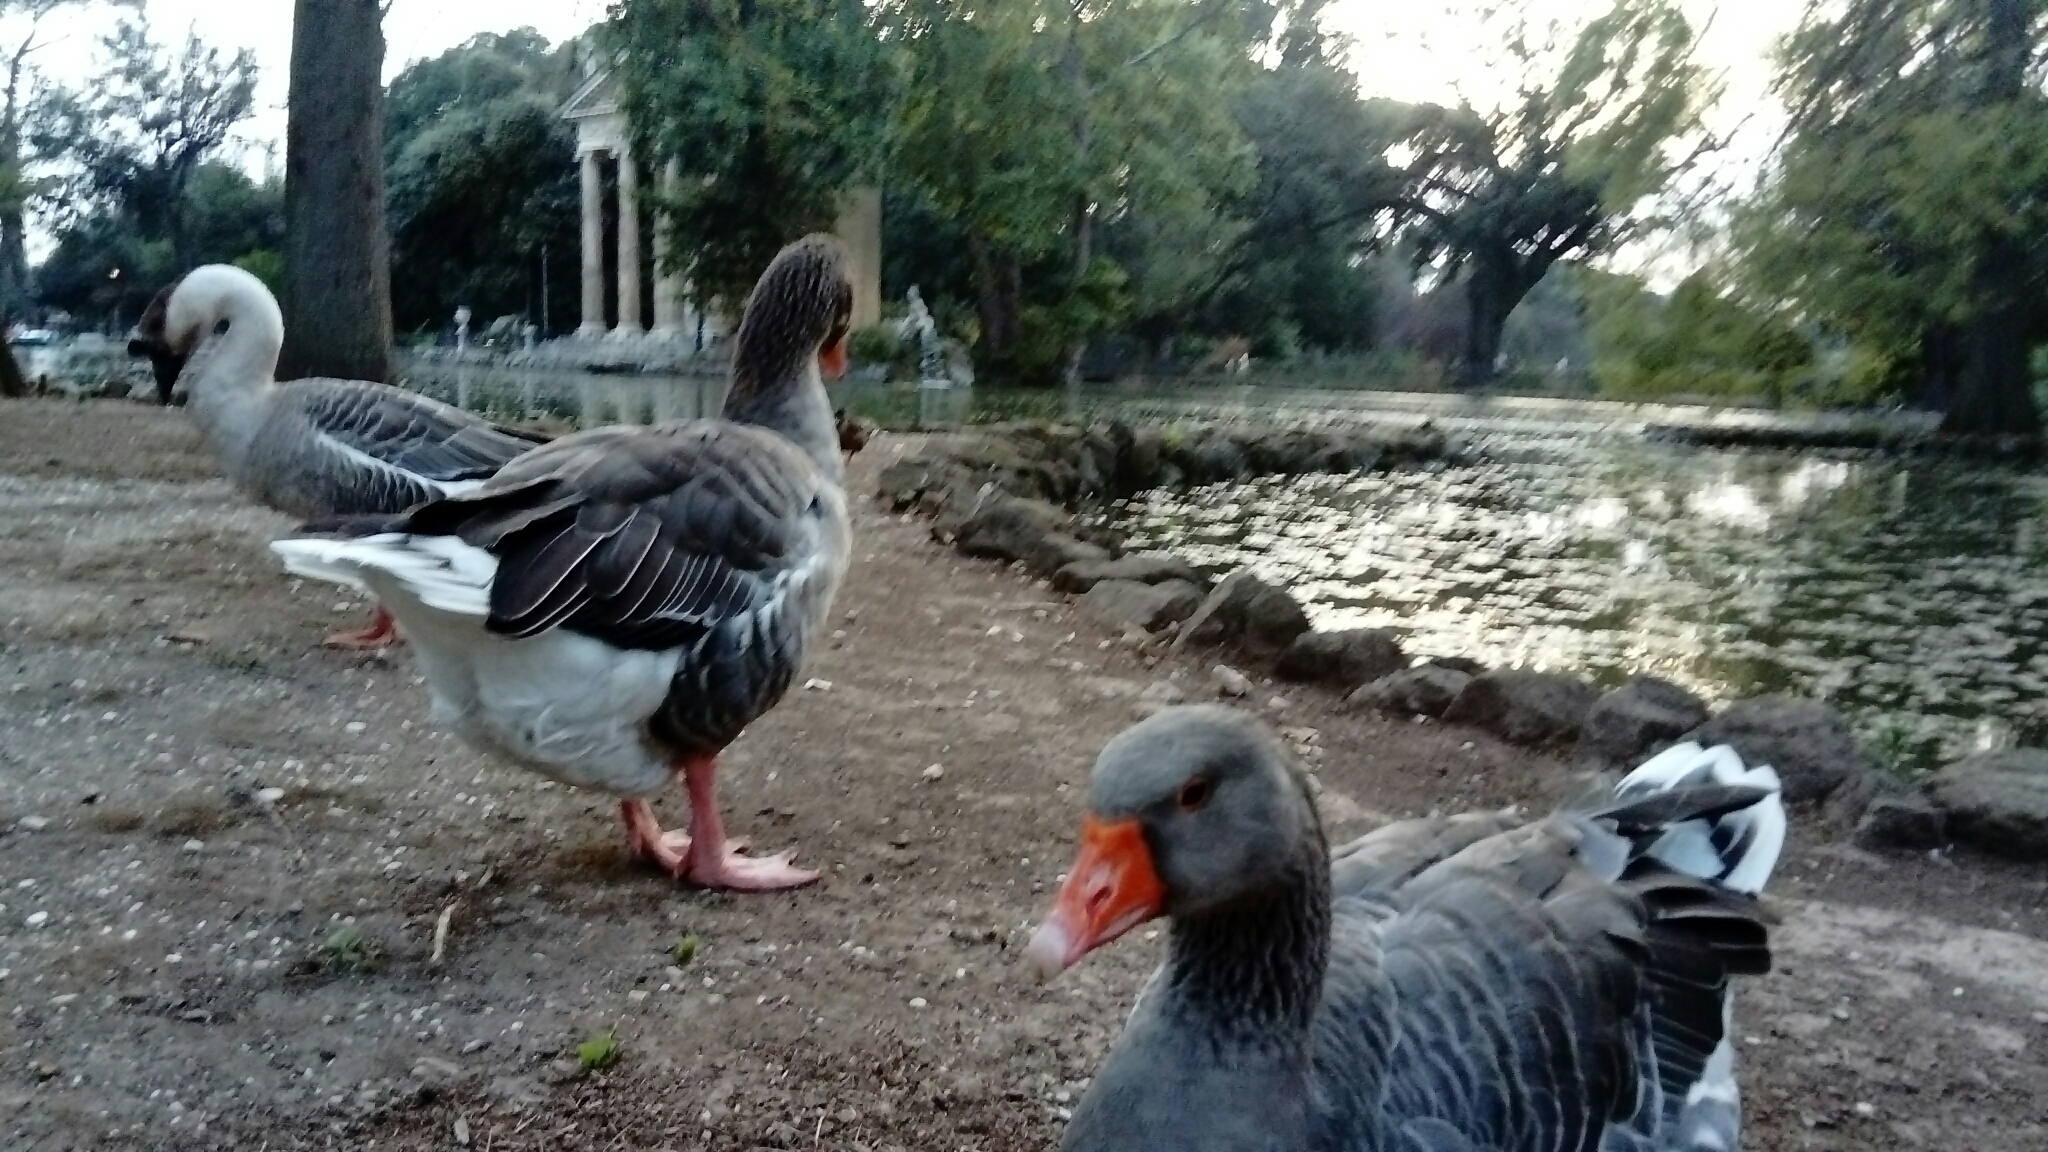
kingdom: Animalia
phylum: Chordata
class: Aves
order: Anseriformes
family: Anatidae
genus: Anser
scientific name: Anser anser
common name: Greylag goose
